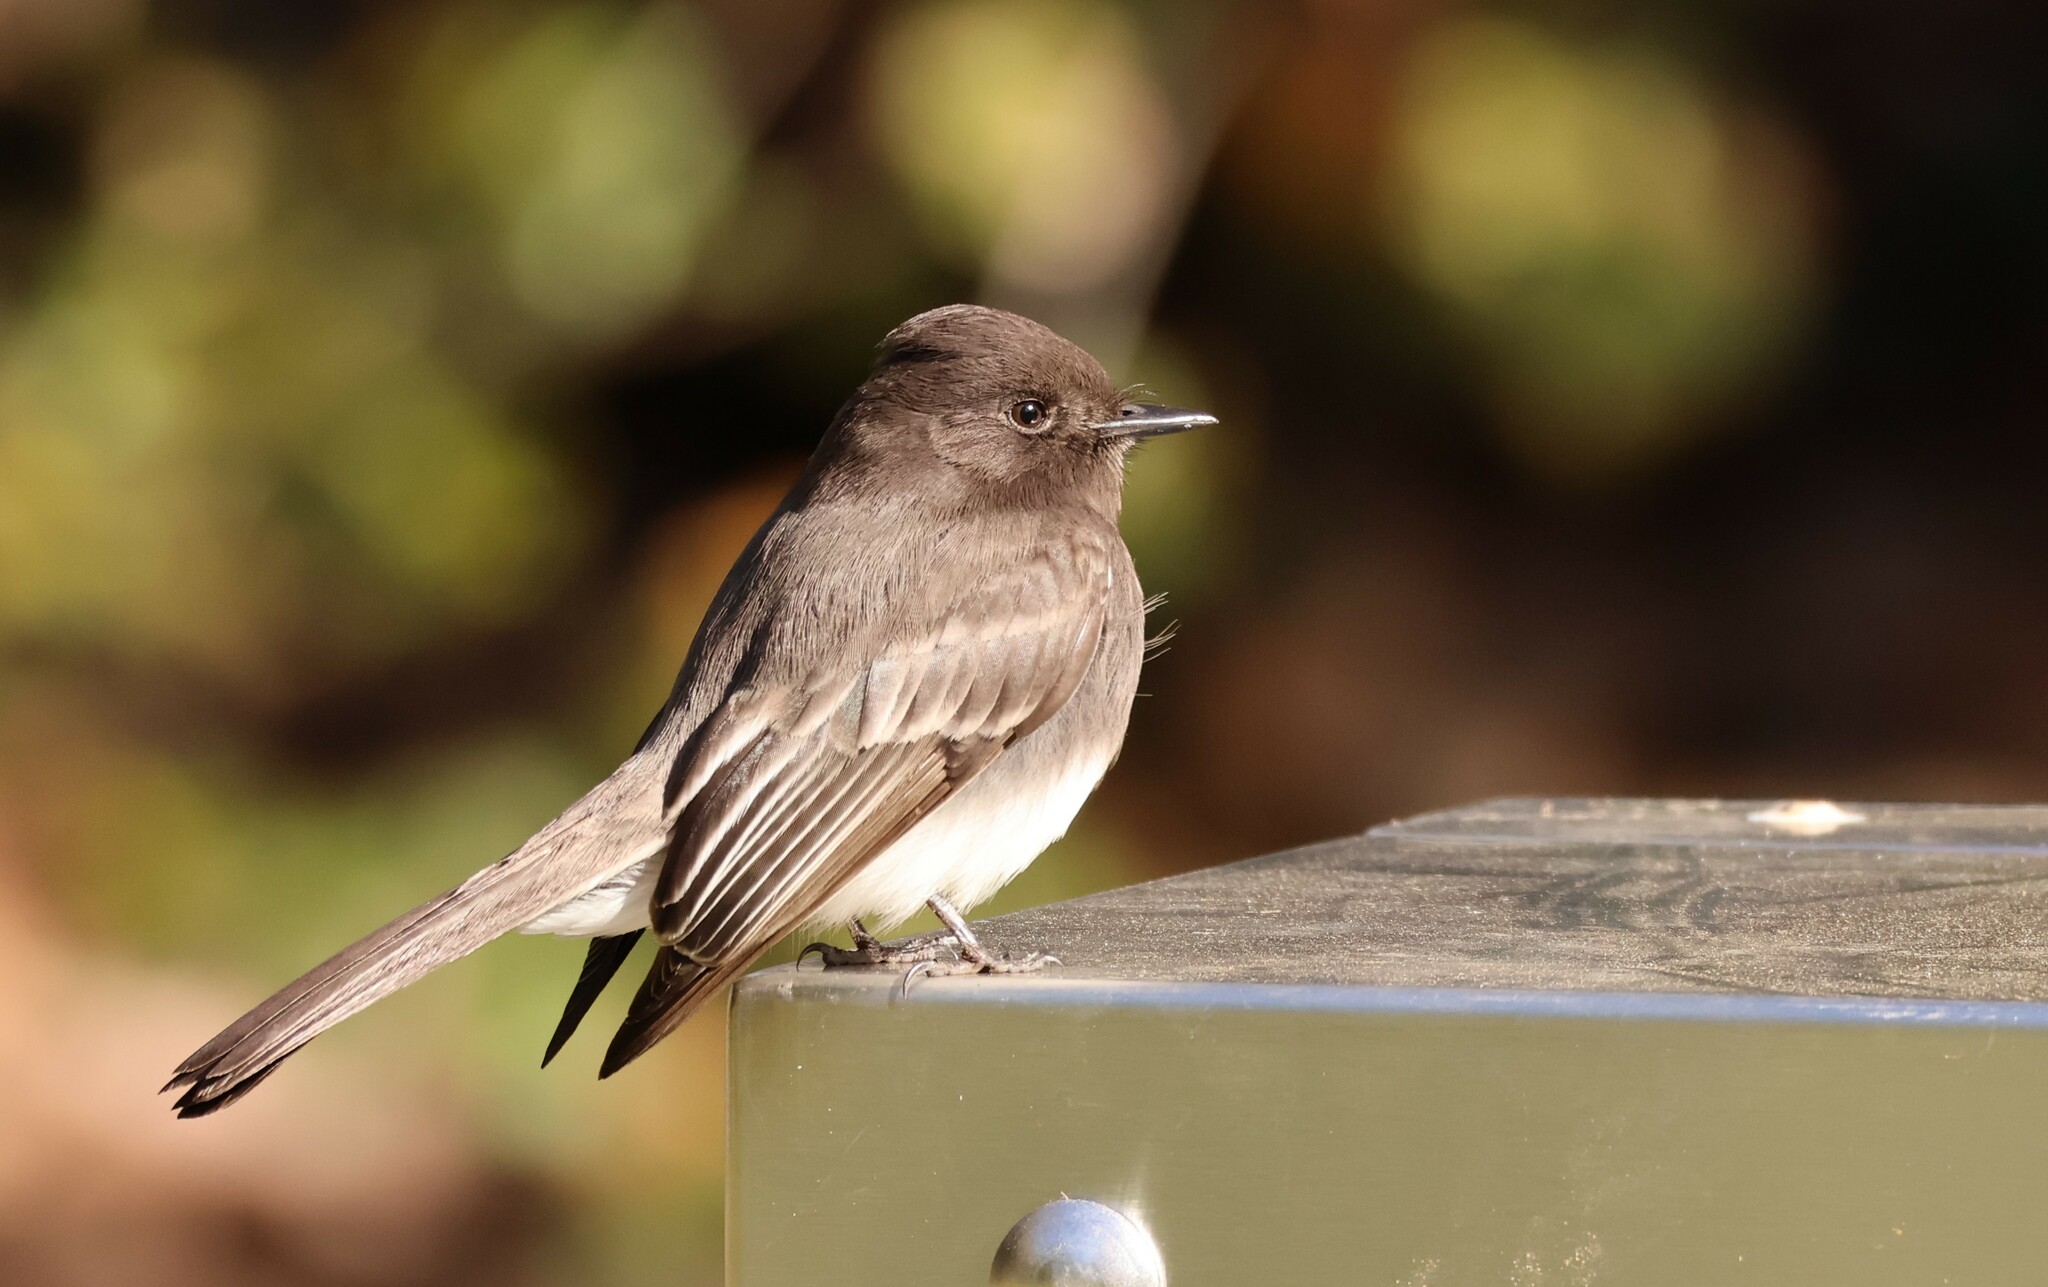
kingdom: Animalia
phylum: Chordata
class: Aves
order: Passeriformes
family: Tyrannidae
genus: Sayornis
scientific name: Sayornis nigricans
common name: Black phoebe
